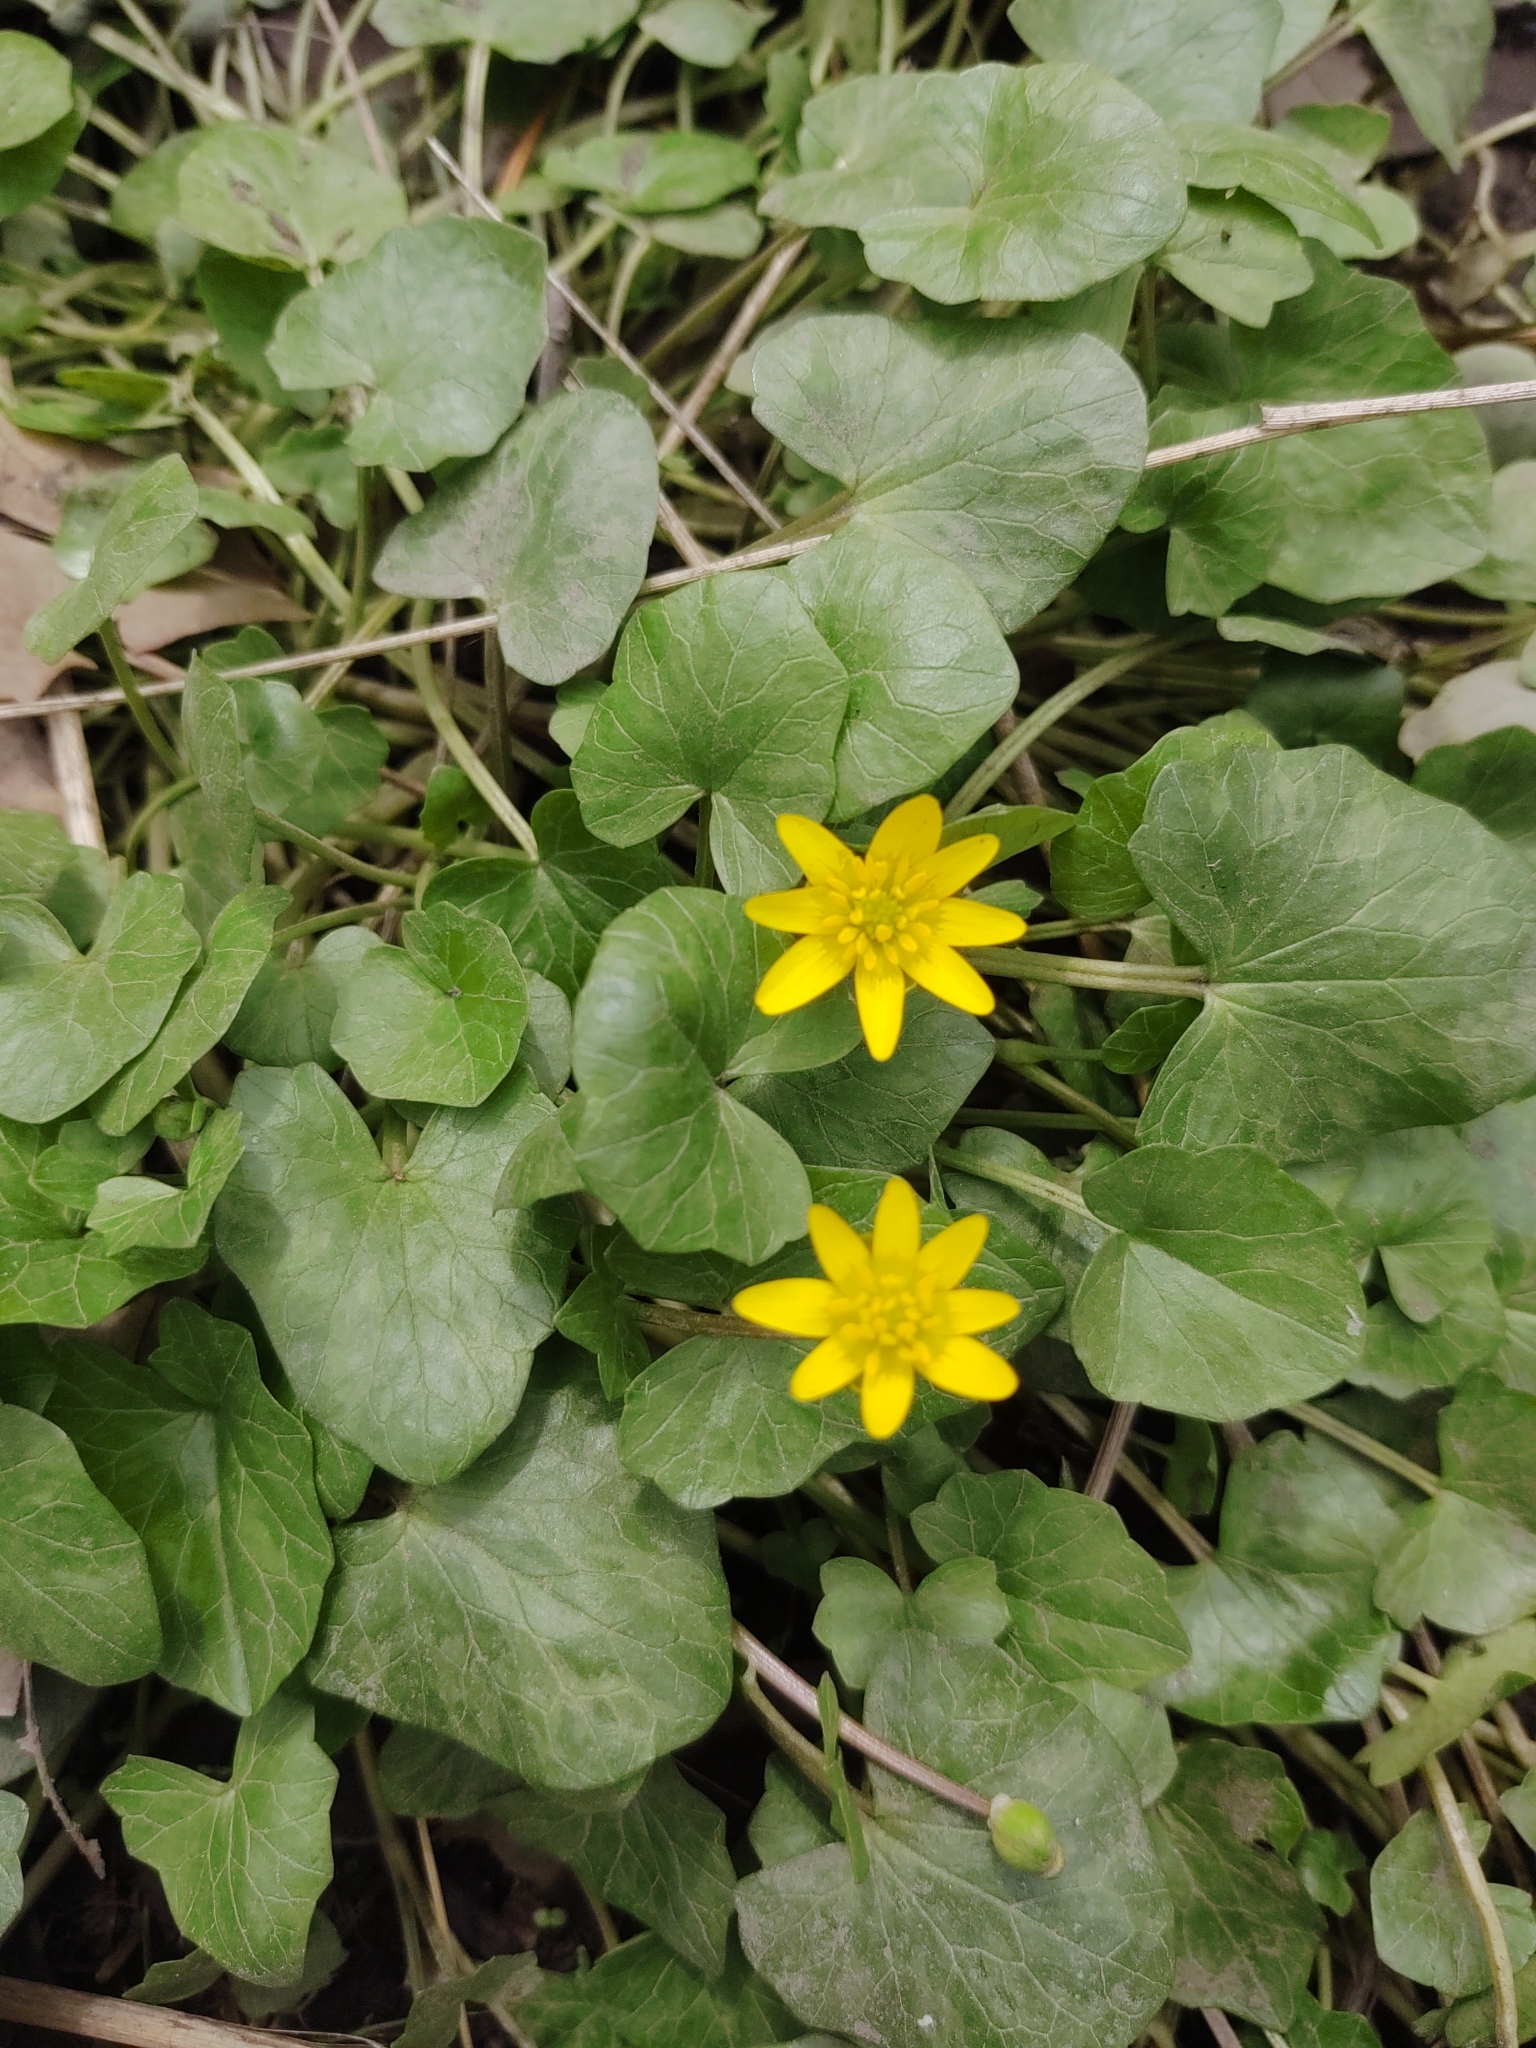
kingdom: Plantae
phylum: Tracheophyta
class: Magnoliopsida
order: Ranunculales
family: Ranunculaceae
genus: Ficaria
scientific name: Ficaria verna
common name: Lesser celandine
